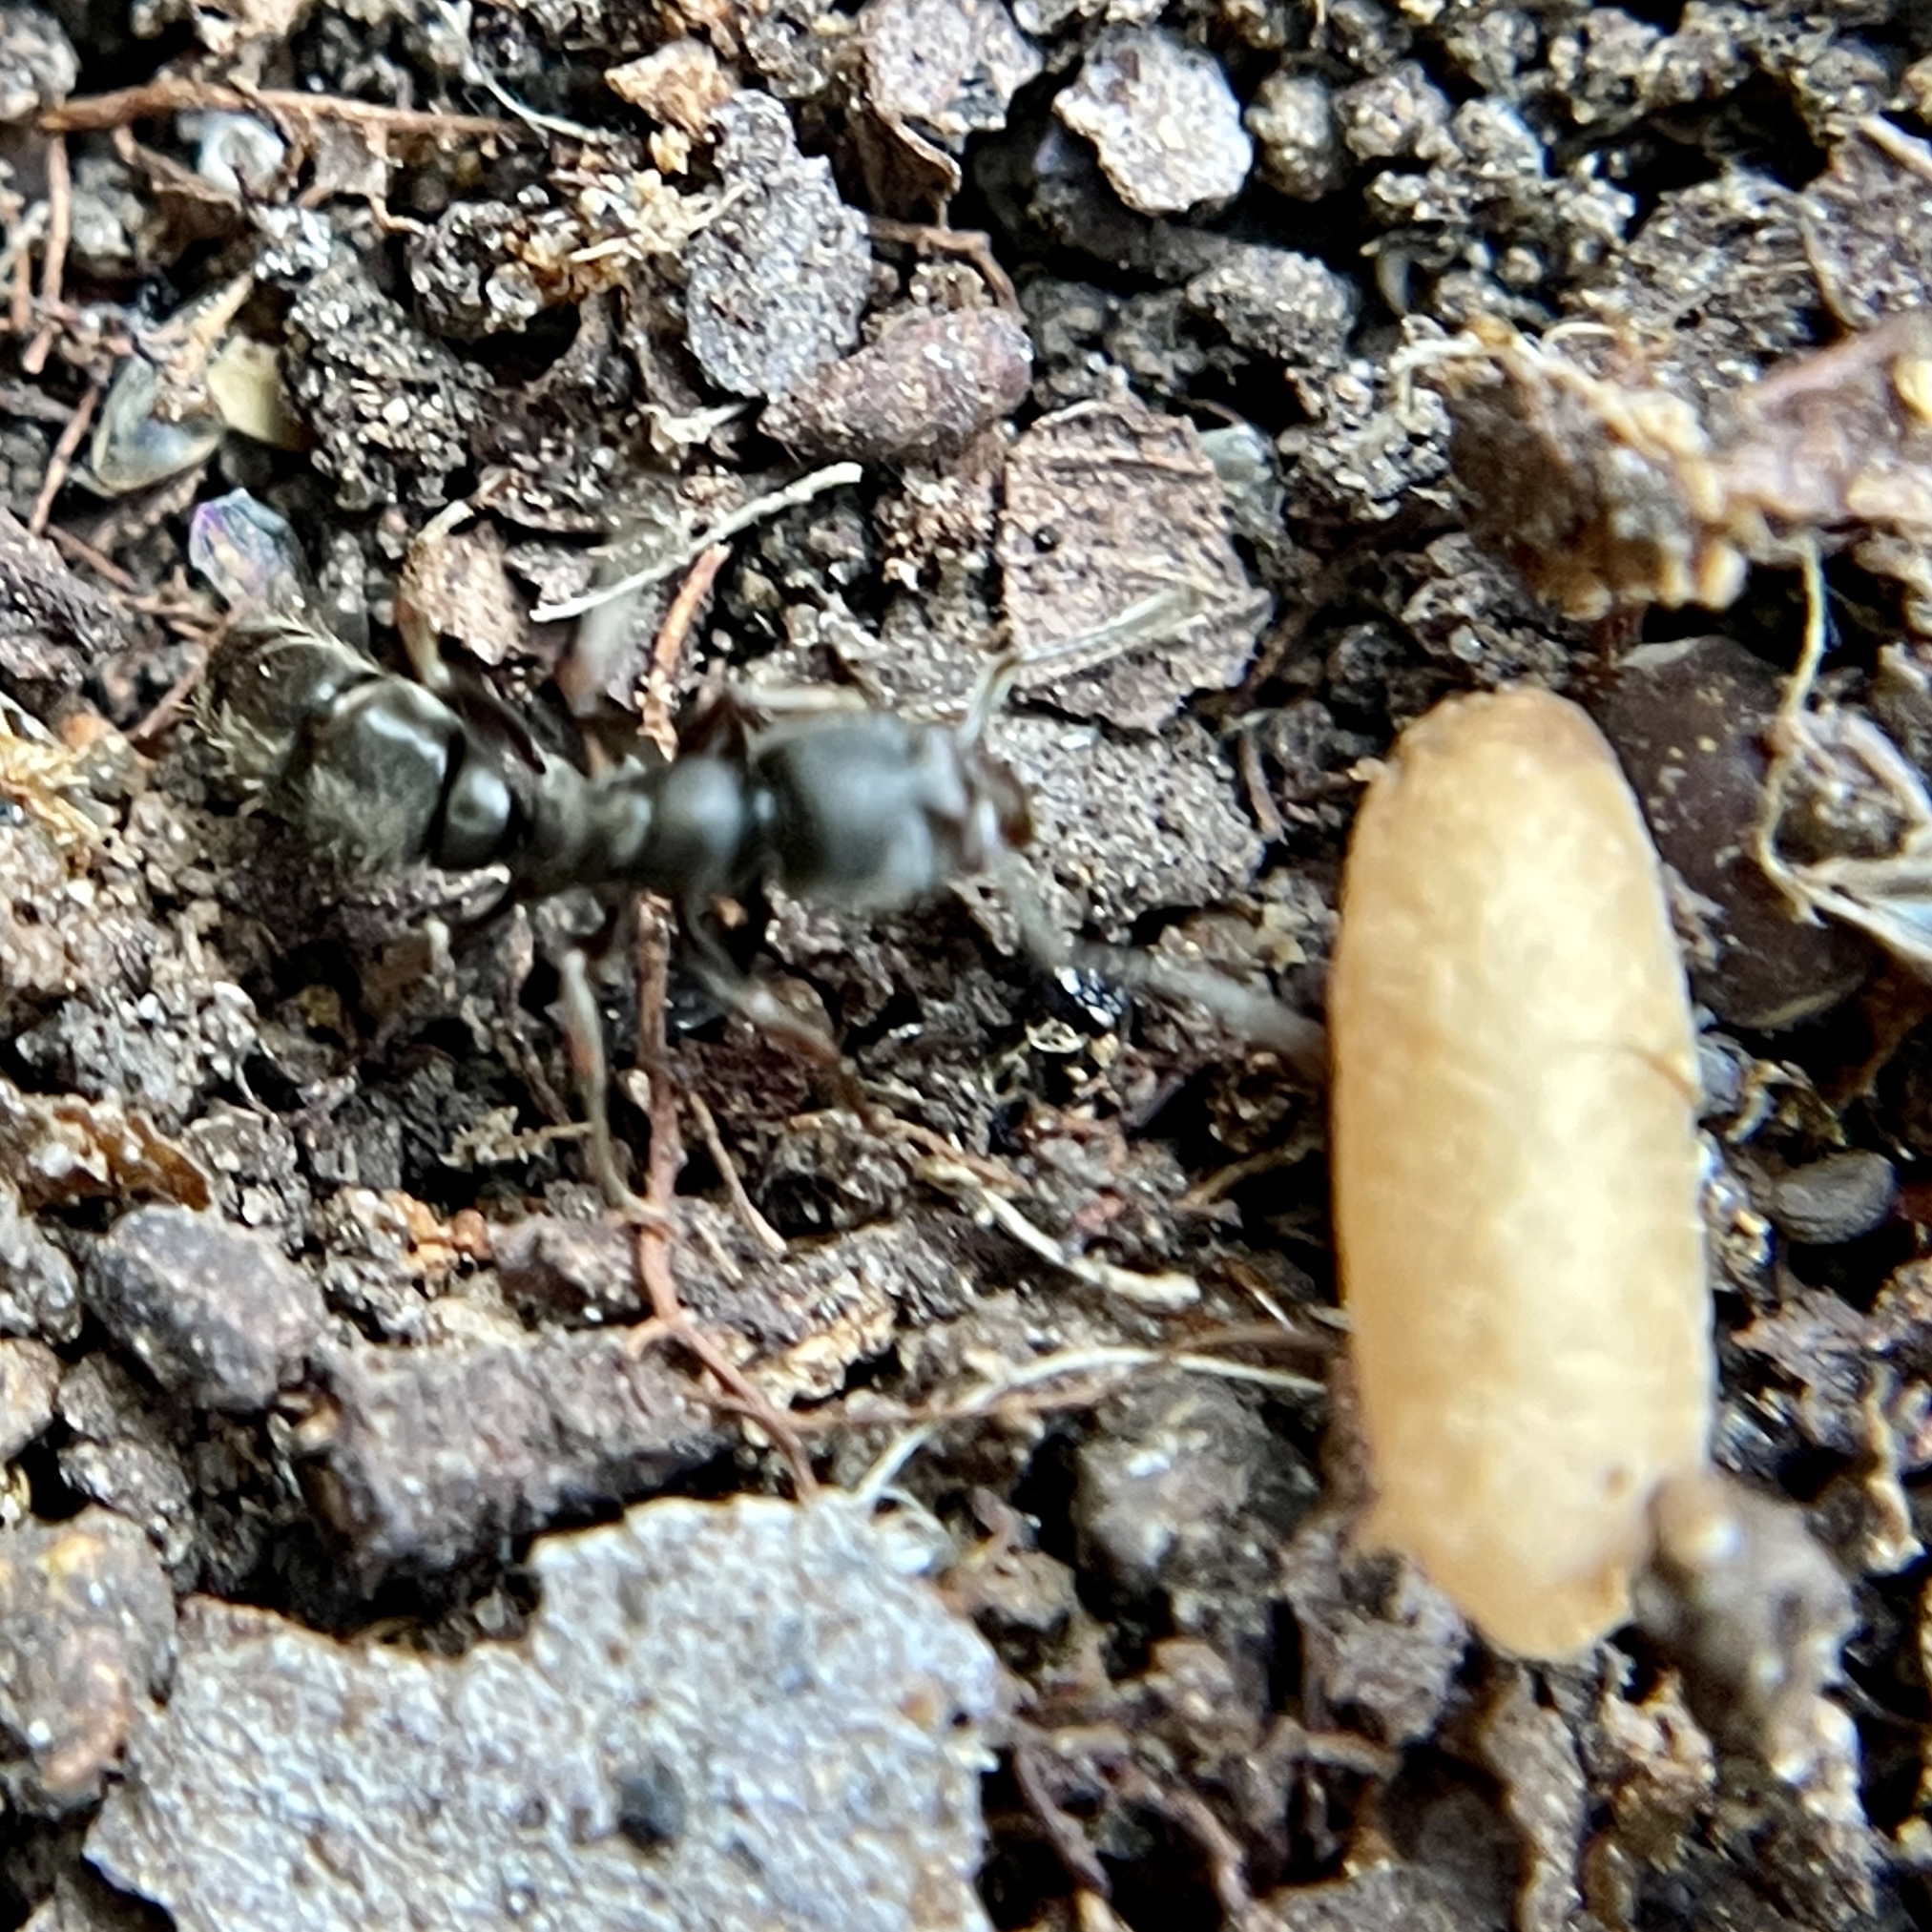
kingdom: Animalia
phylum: Arthropoda
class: Insecta
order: Hymenoptera
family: Formicidae
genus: Pachycondyla
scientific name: Pachycondyla harpax
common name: Ant
